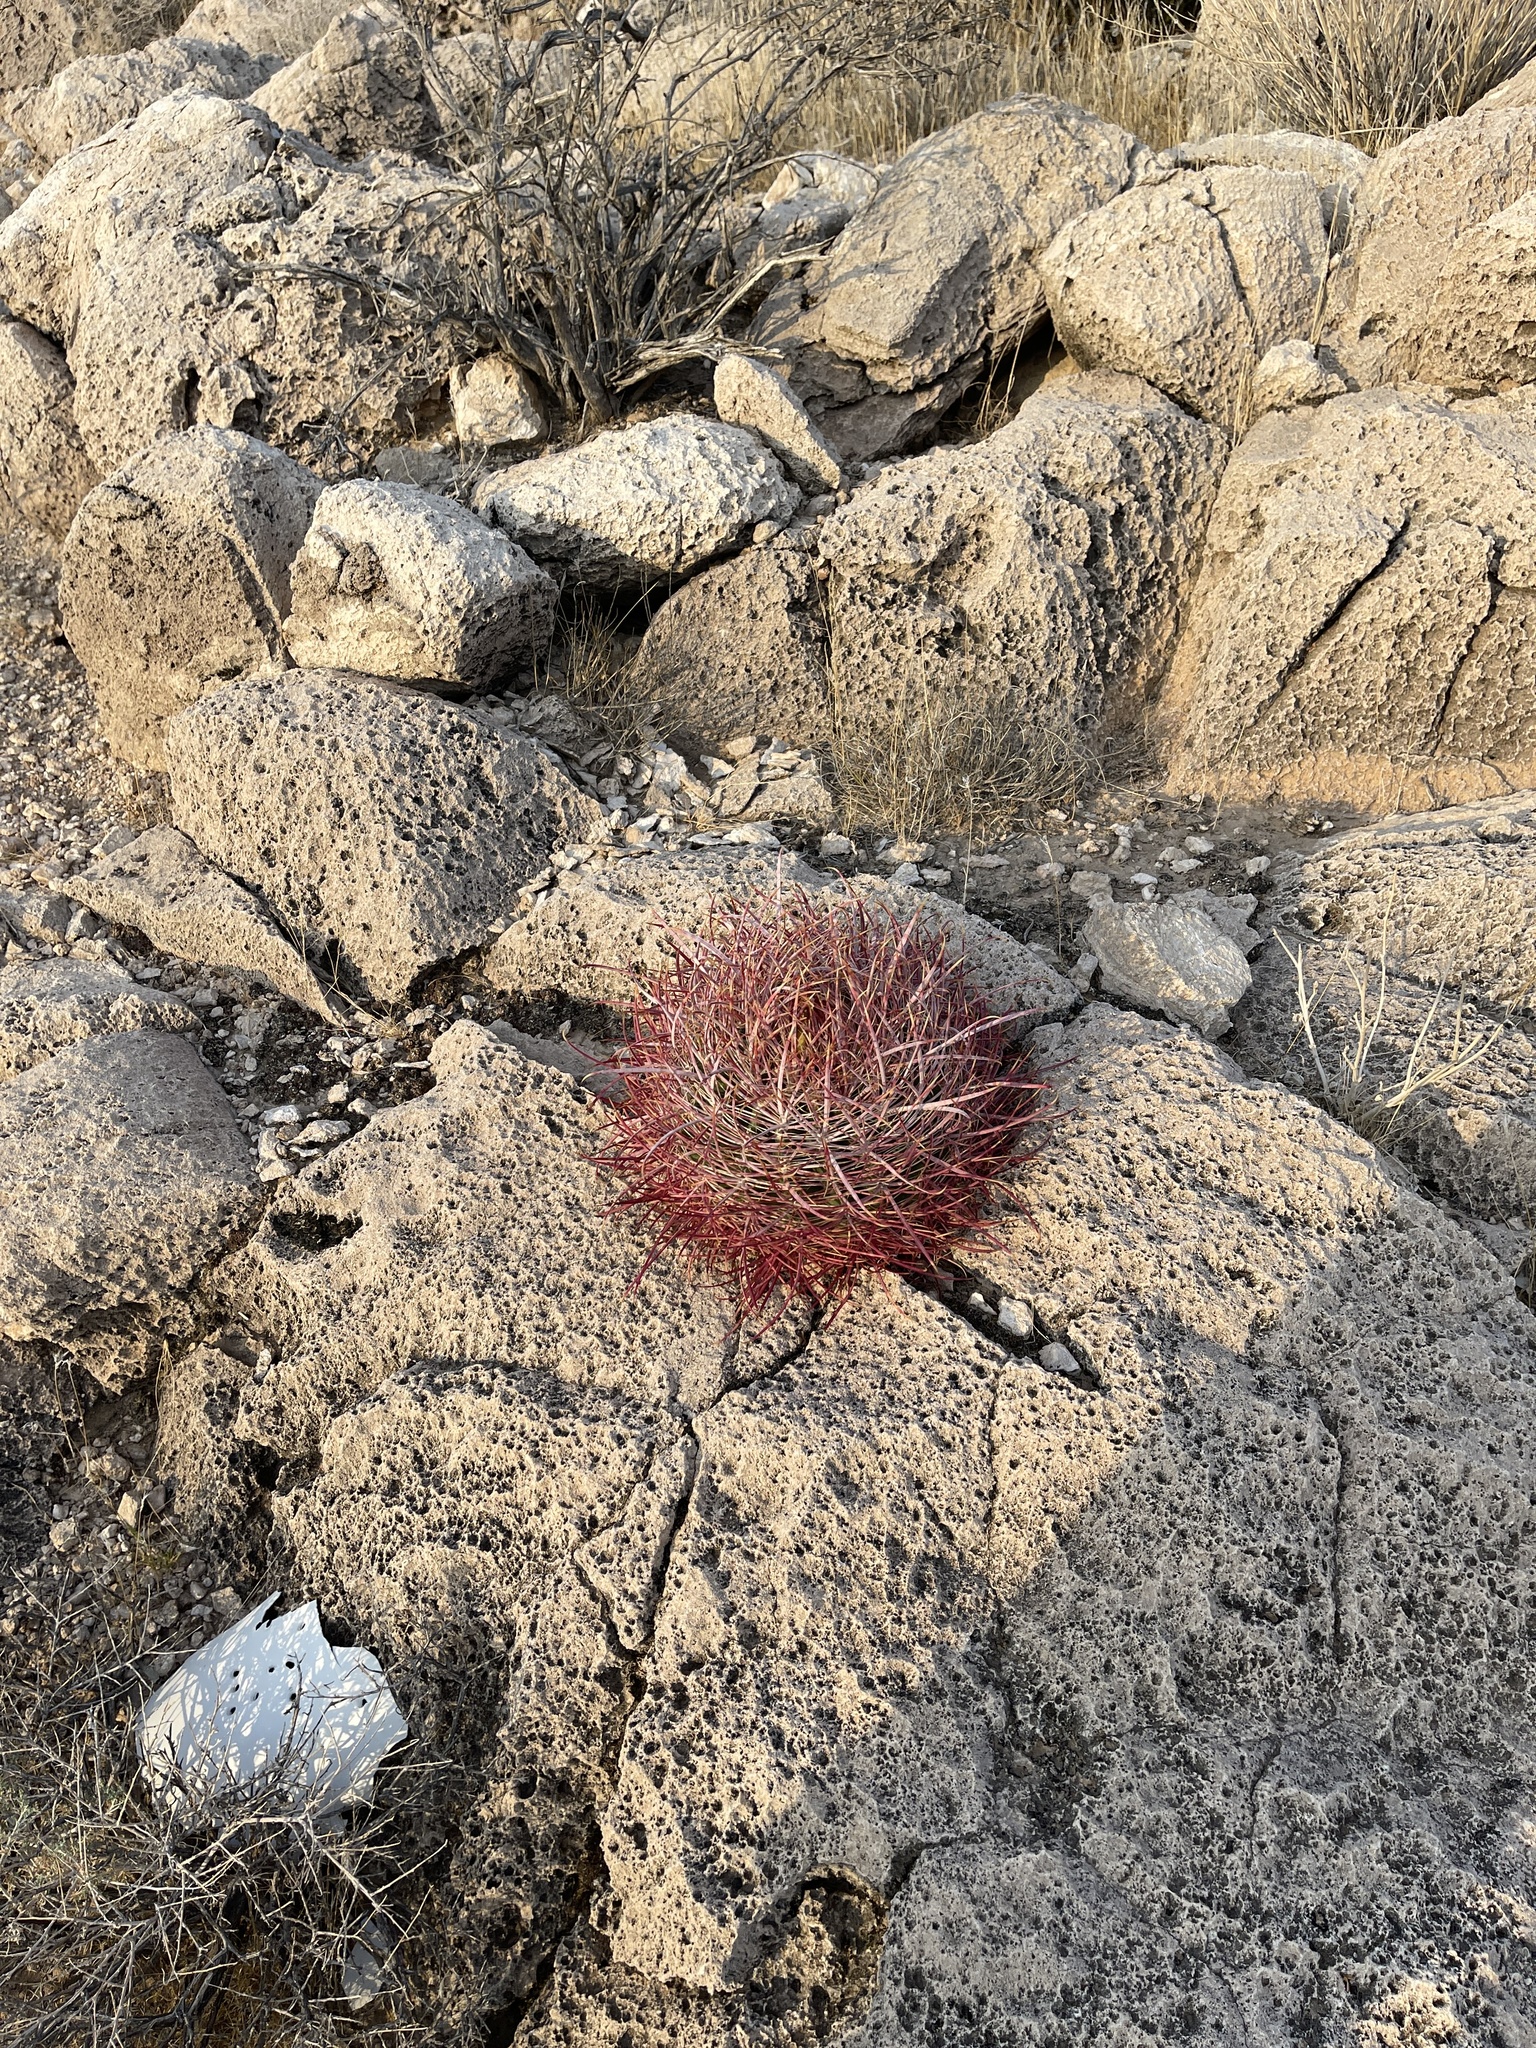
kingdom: Plantae
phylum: Tracheophyta
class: Magnoliopsida
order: Caryophyllales
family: Cactaceae
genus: Ferocactus
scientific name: Ferocactus cylindraceus
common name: California barrel cactus
